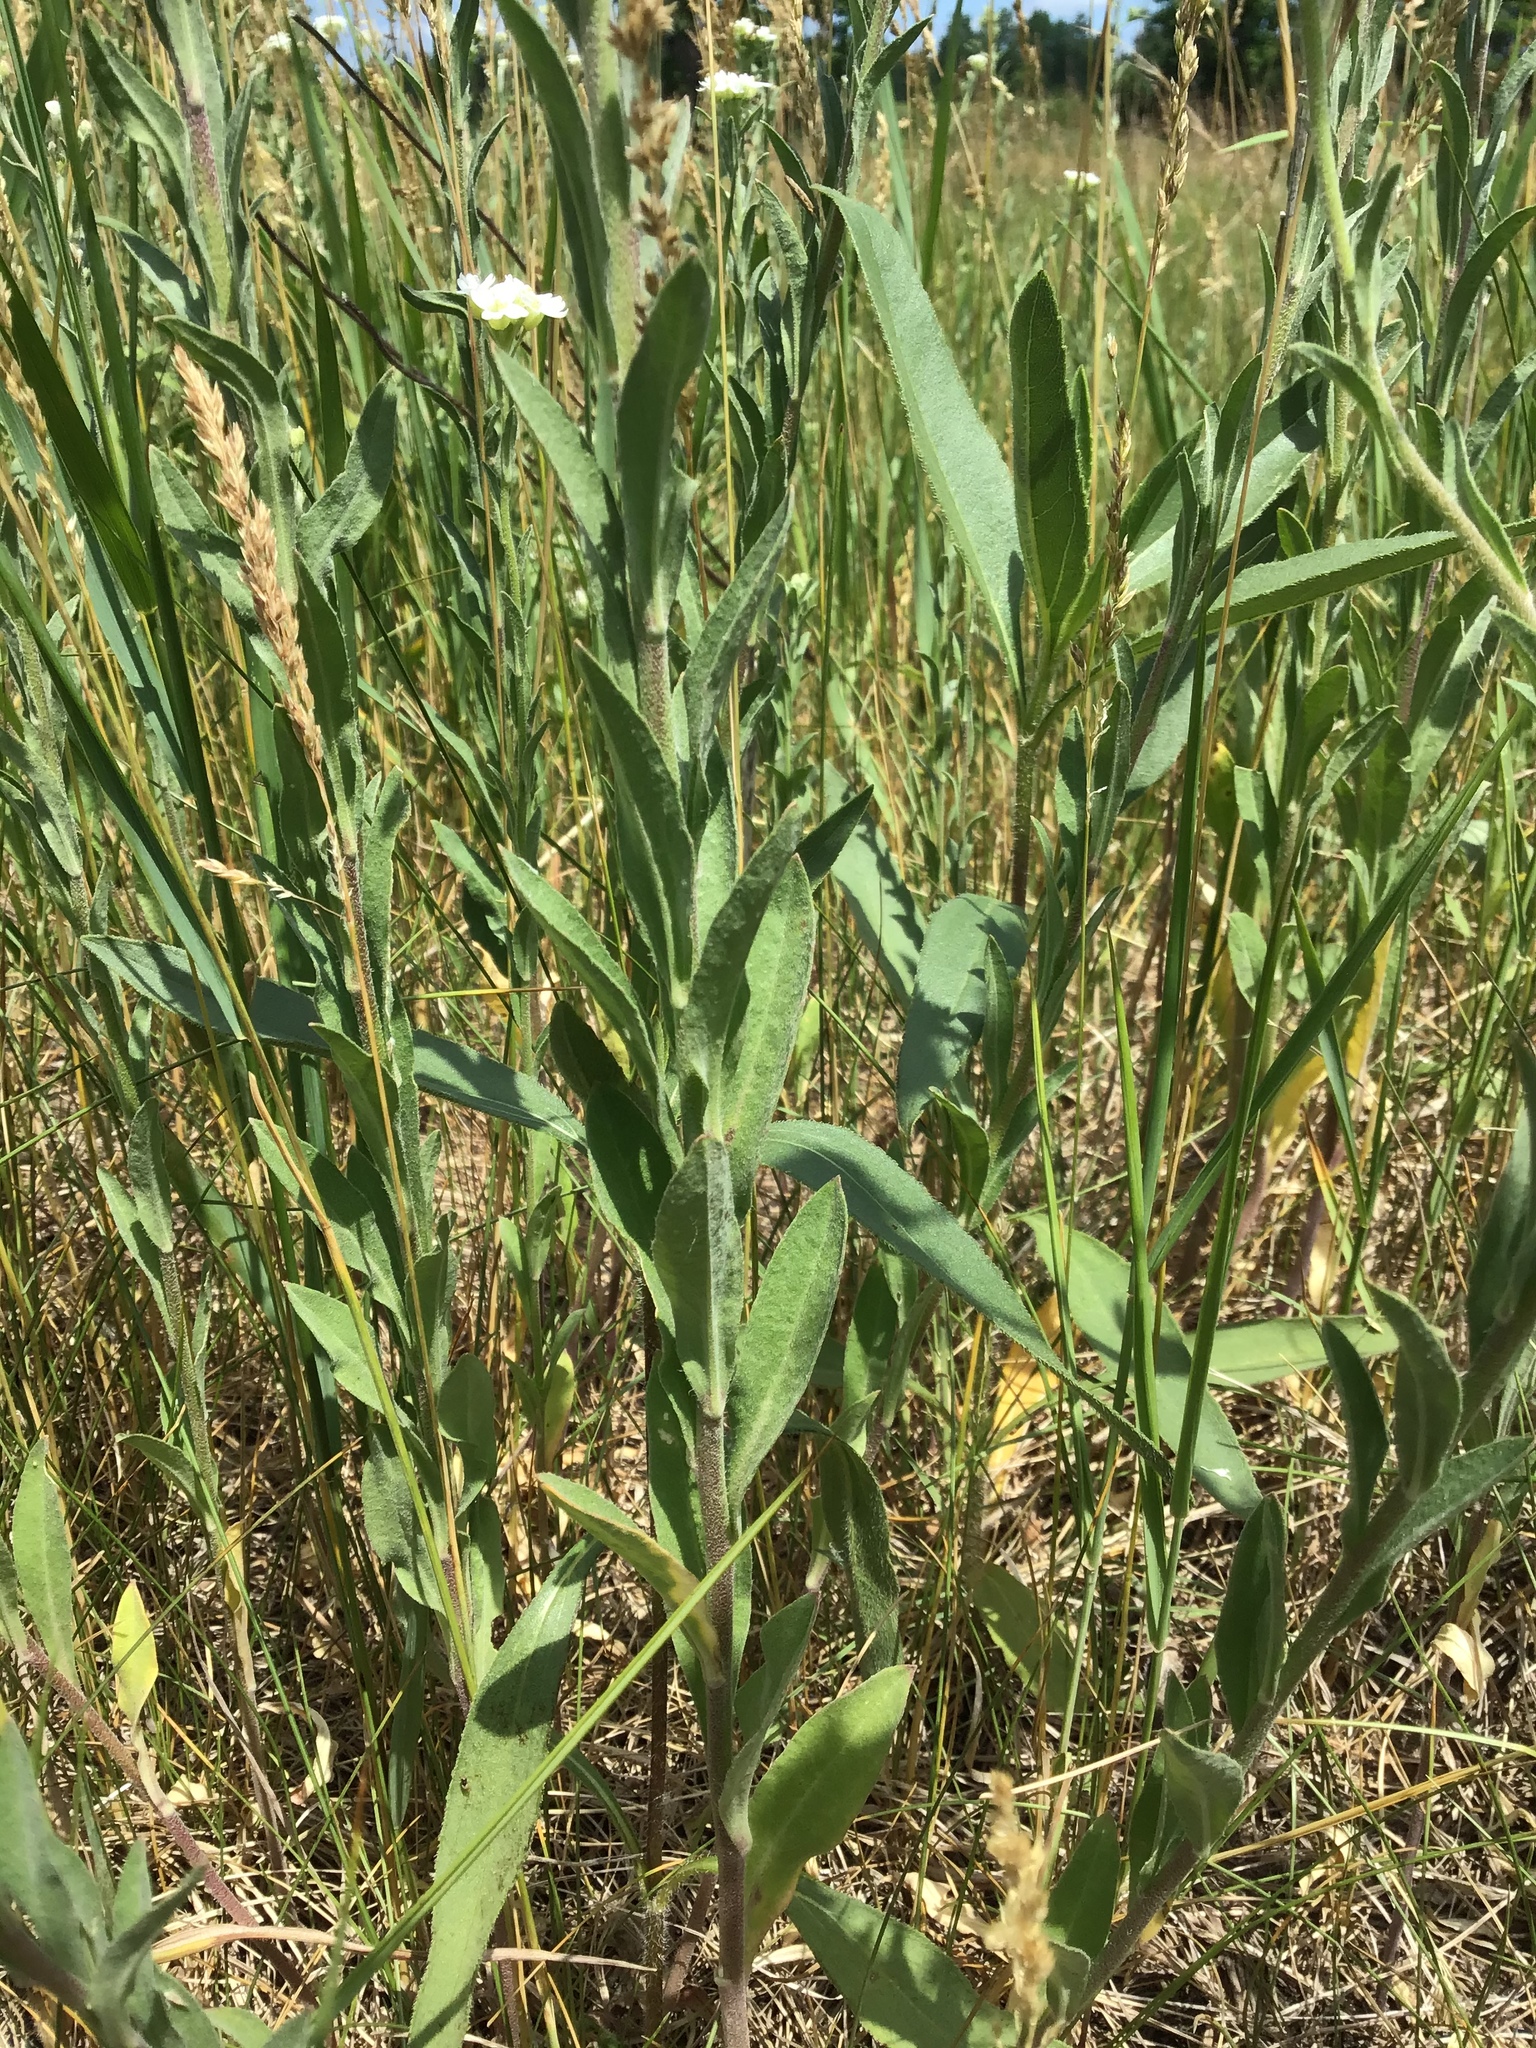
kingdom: Plantae
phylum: Tracheophyta
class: Magnoliopsida
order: Brassicales
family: Brassicaceae
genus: Berteroa
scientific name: Berteroa incana
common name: Hoary alison
